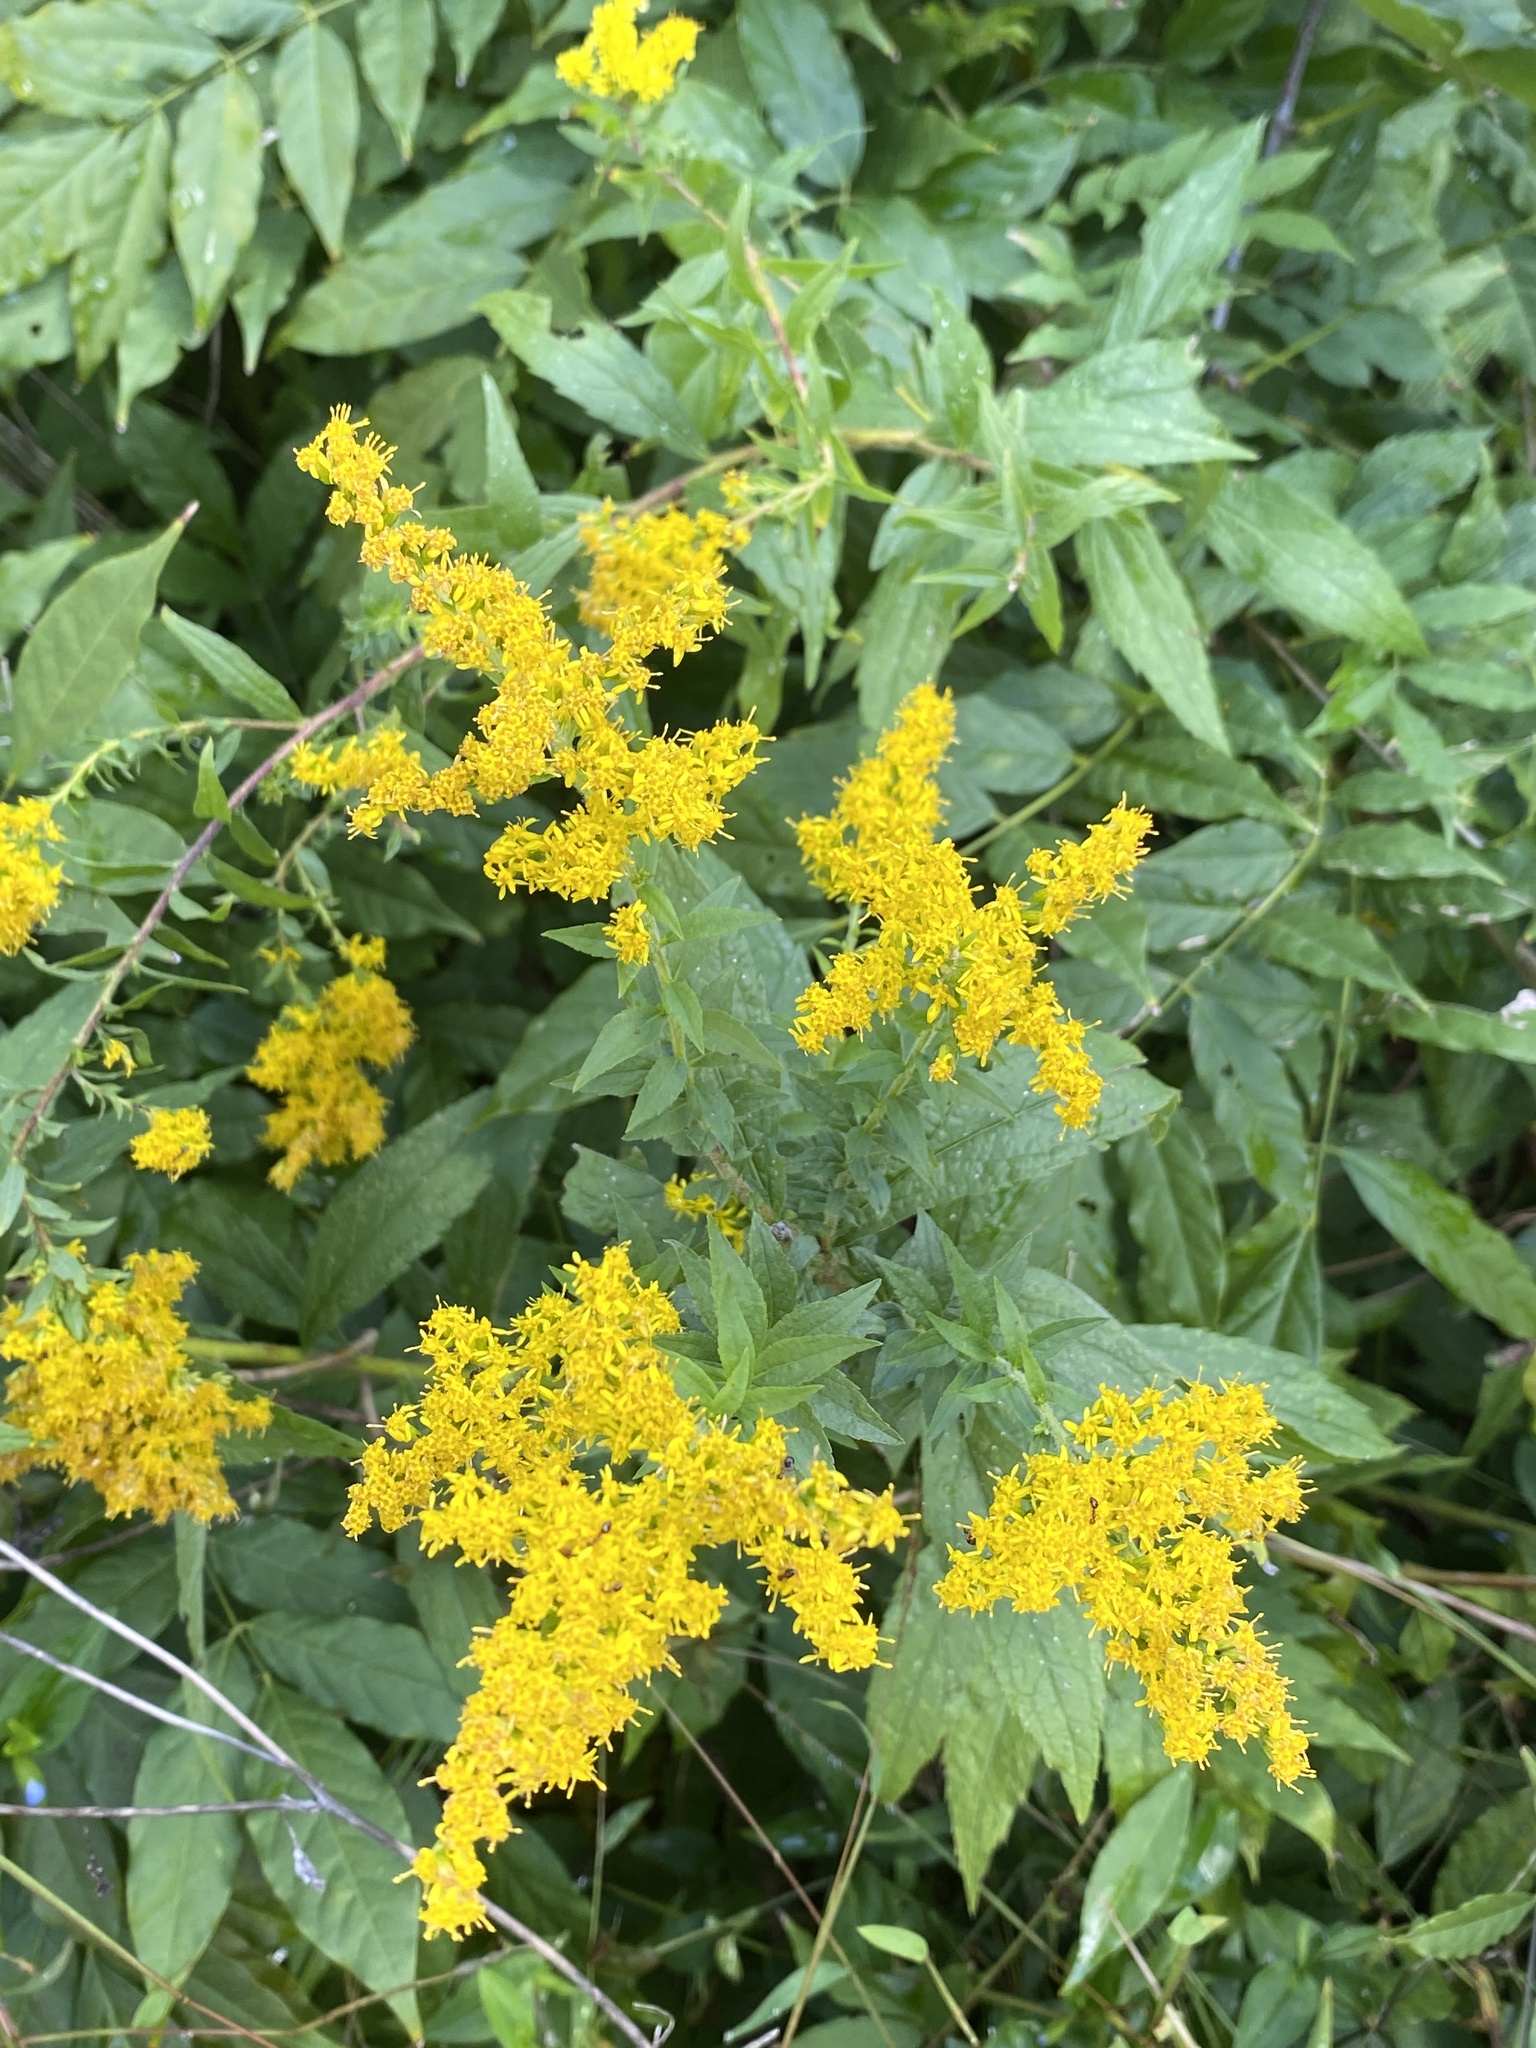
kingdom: Plantae
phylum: Tracheophyta
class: Magnoliopsida
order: Asterales
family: Asteraceae
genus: Solidago
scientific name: Solidago rugosa
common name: Rough-stemmed goldenrod
